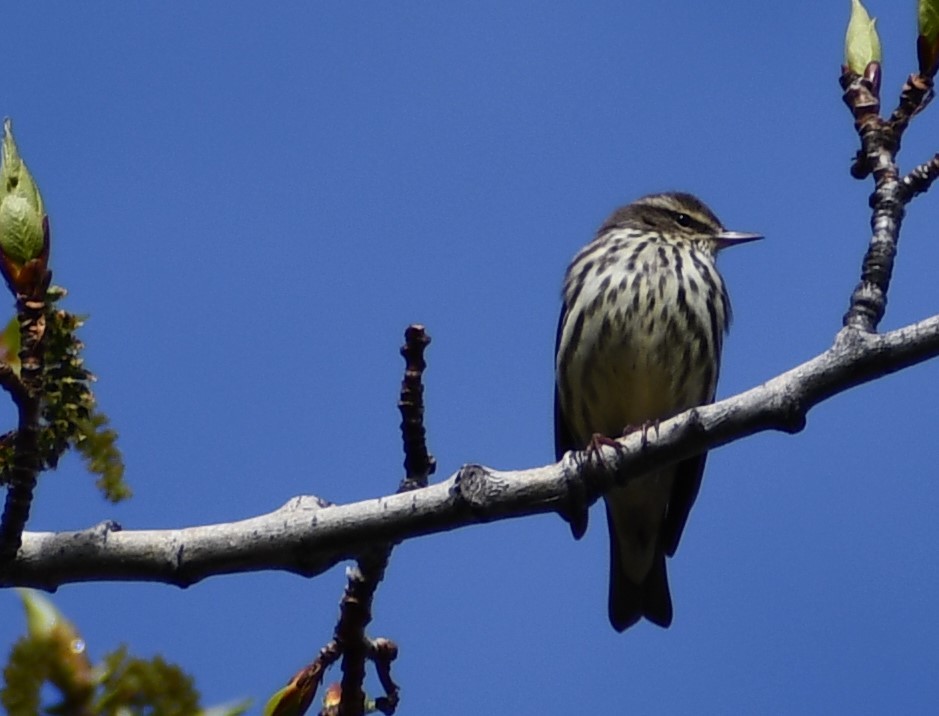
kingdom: Animalia
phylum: Chordata
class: Aves
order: Passeriformes
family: Parulidae
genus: Parkesia
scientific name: Parkesia noveboracensis
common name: Northern waterthrush
